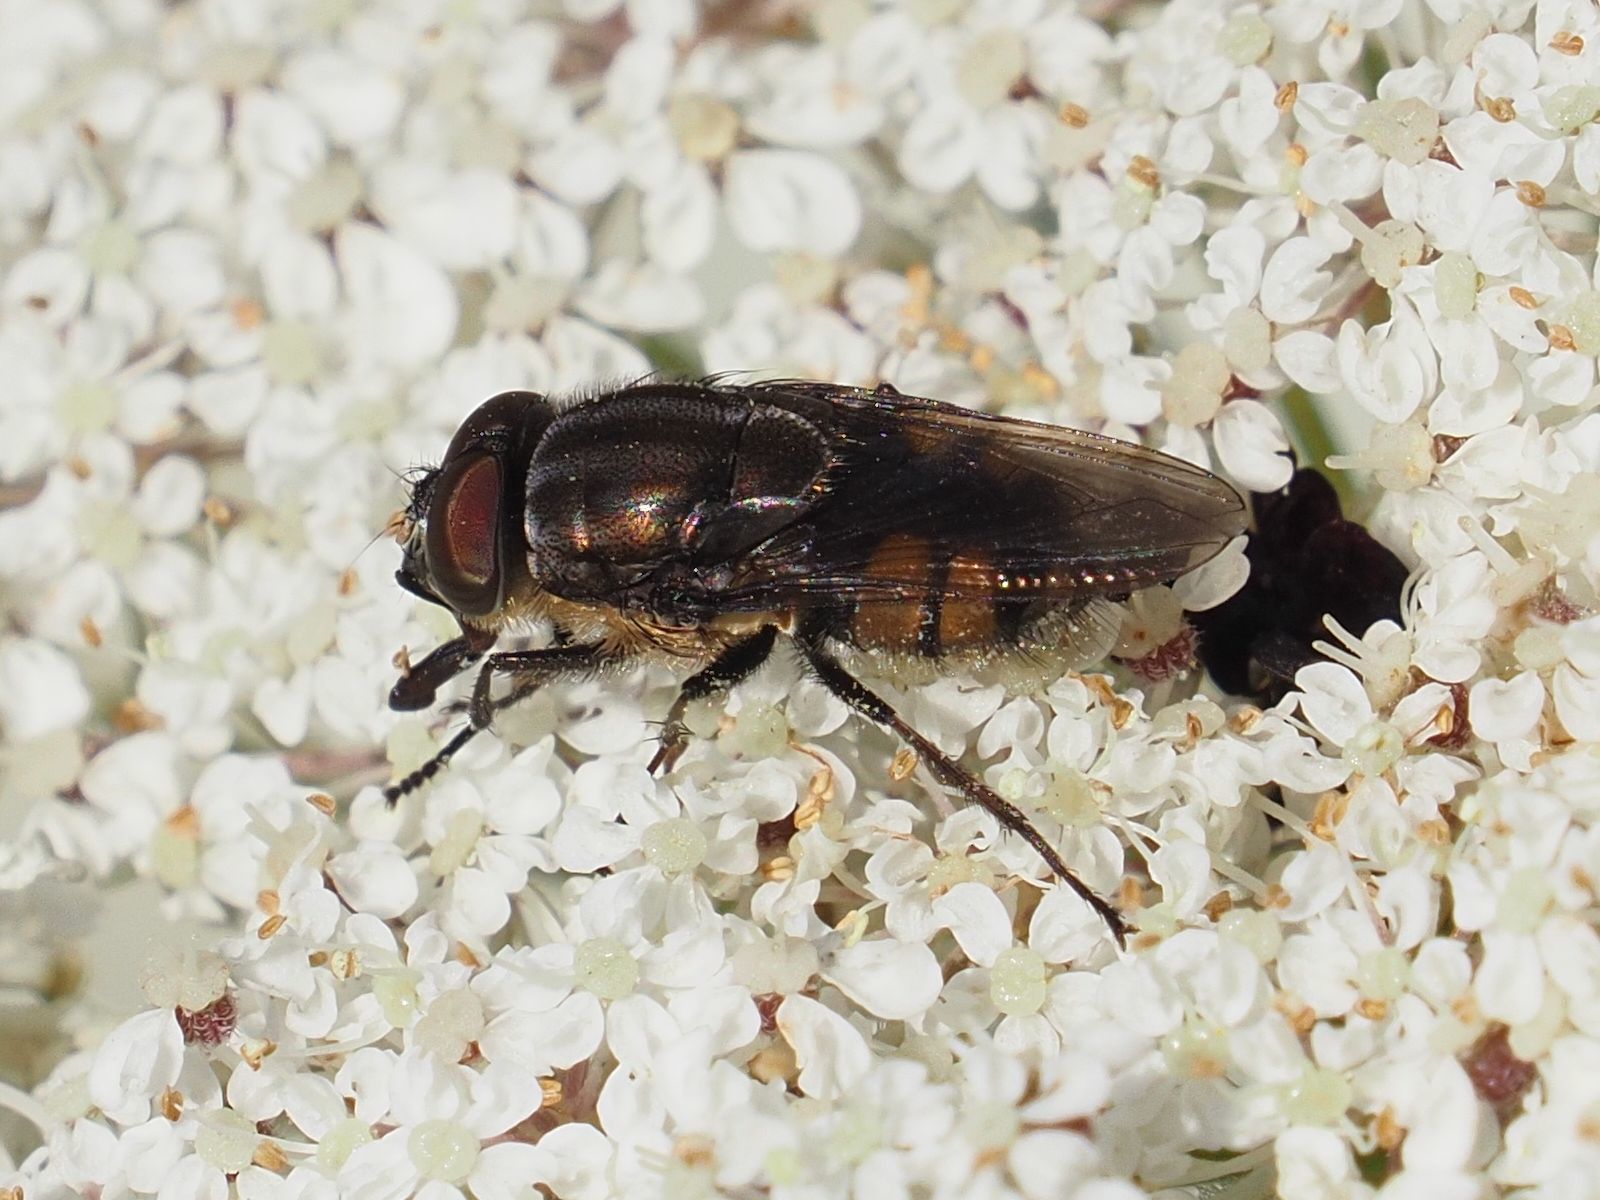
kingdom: Animalia
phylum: Arthropoda
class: Insecta
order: Diptera
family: Calliphoridae
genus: Stomorhina
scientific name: Stomorhina lunata
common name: Locust blowfly
